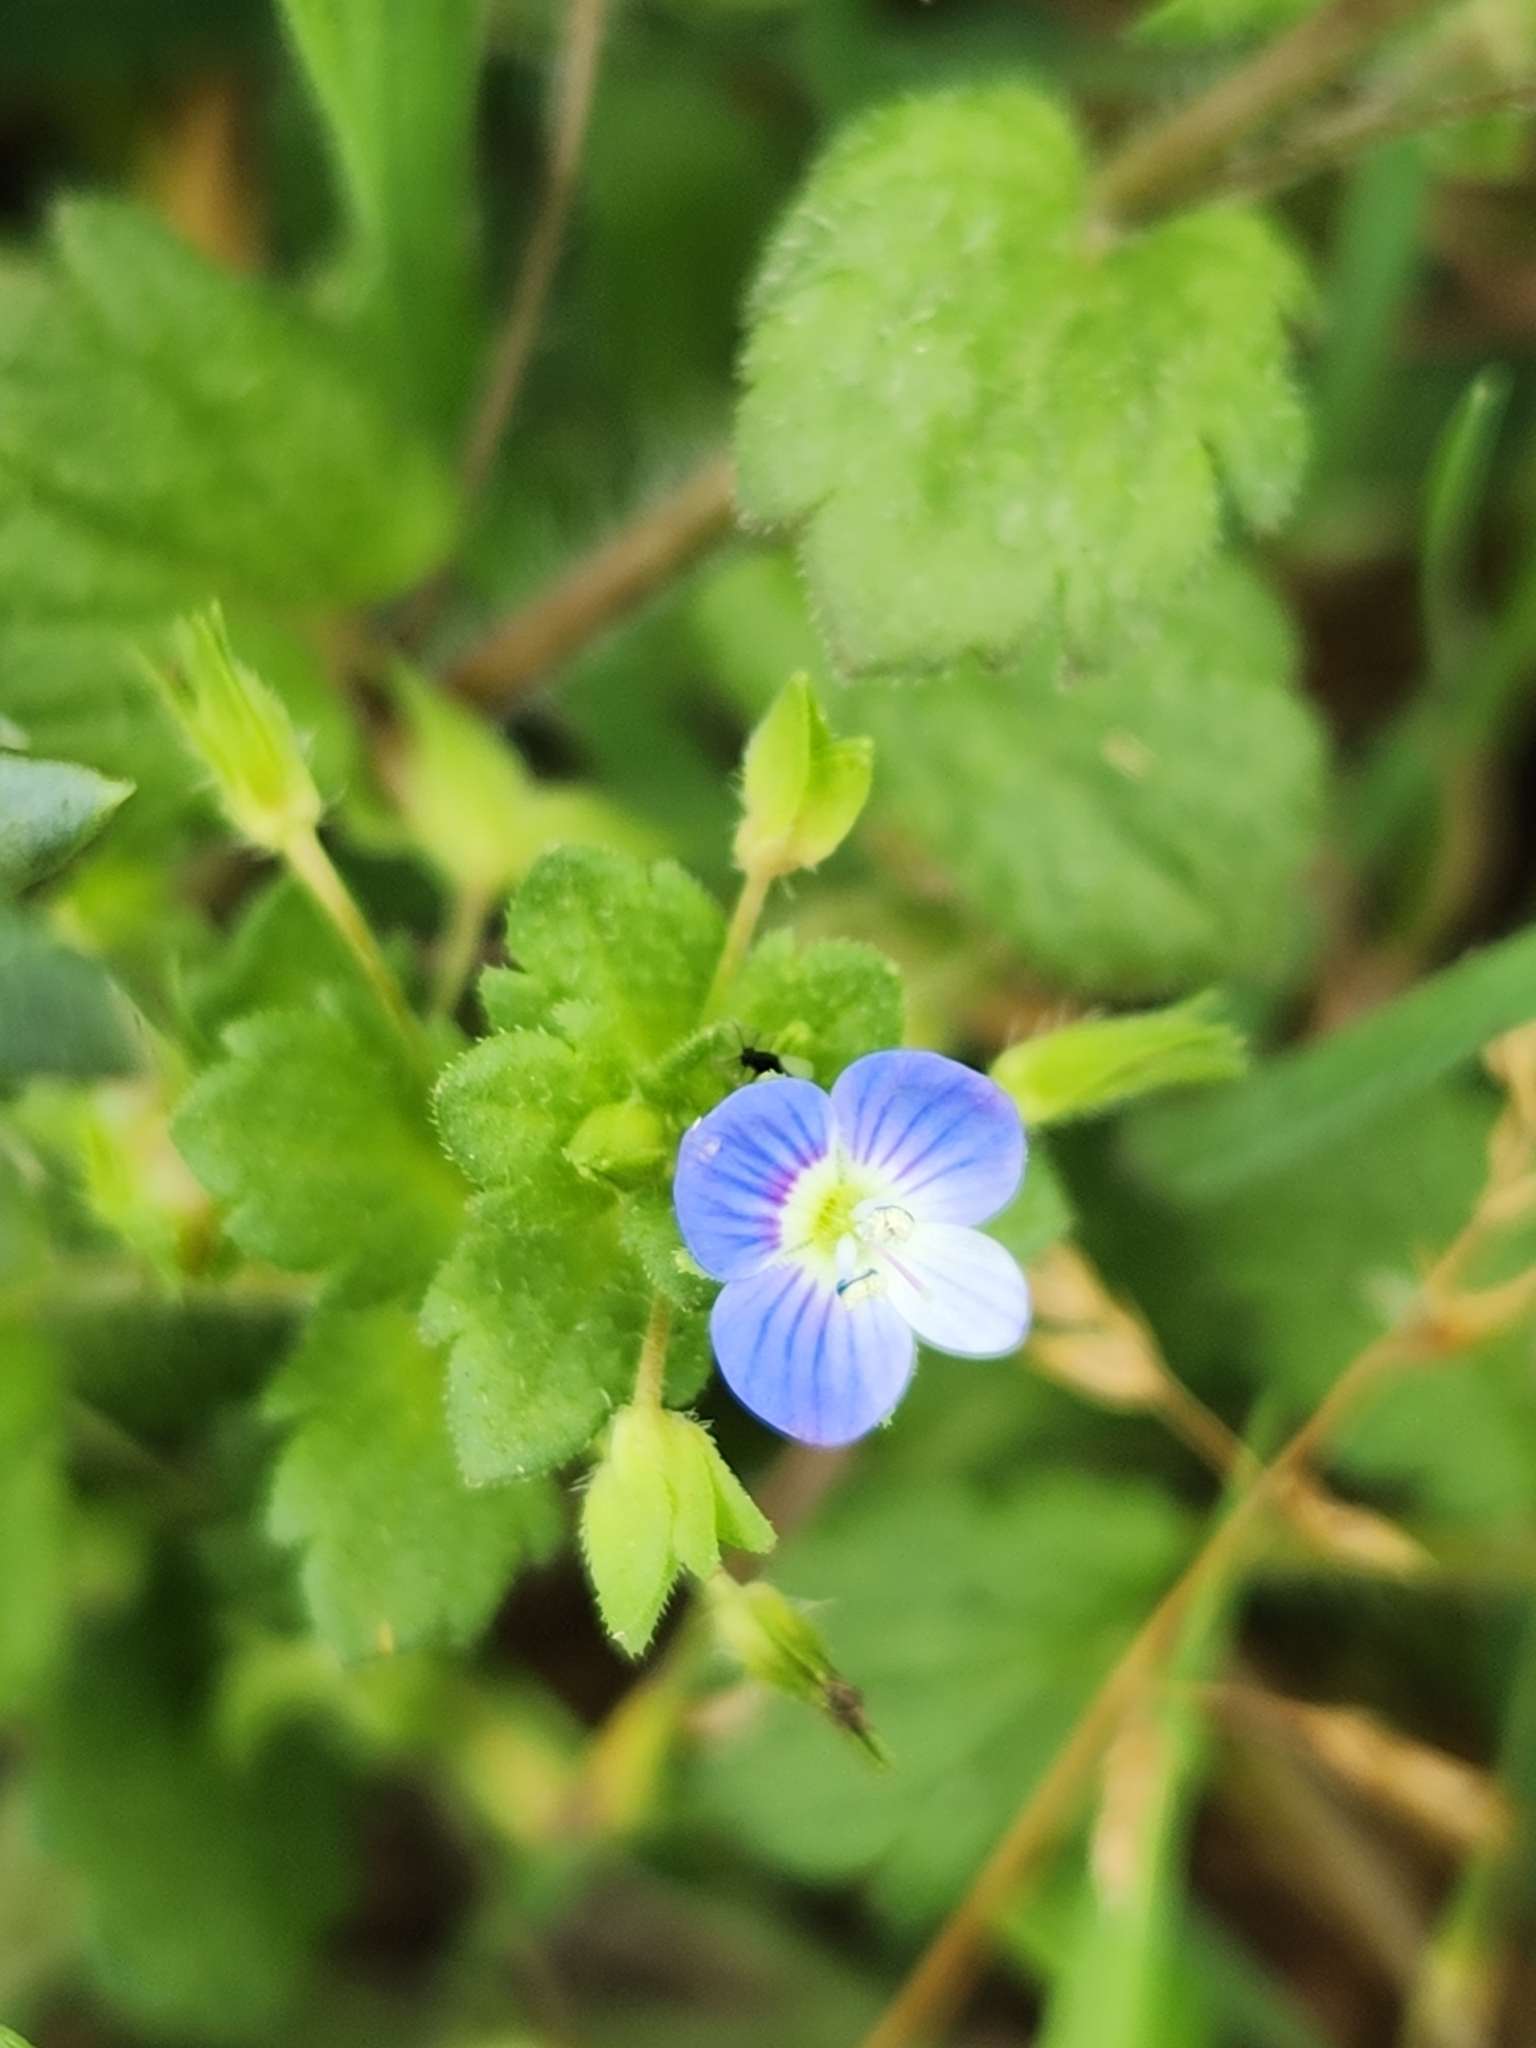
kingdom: Plantae
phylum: Tracheophyta
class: Magnoliopsida
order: Lamiales
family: Plantaginaceae
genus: Veronica
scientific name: Veronica persica
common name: Common field-speedwell
